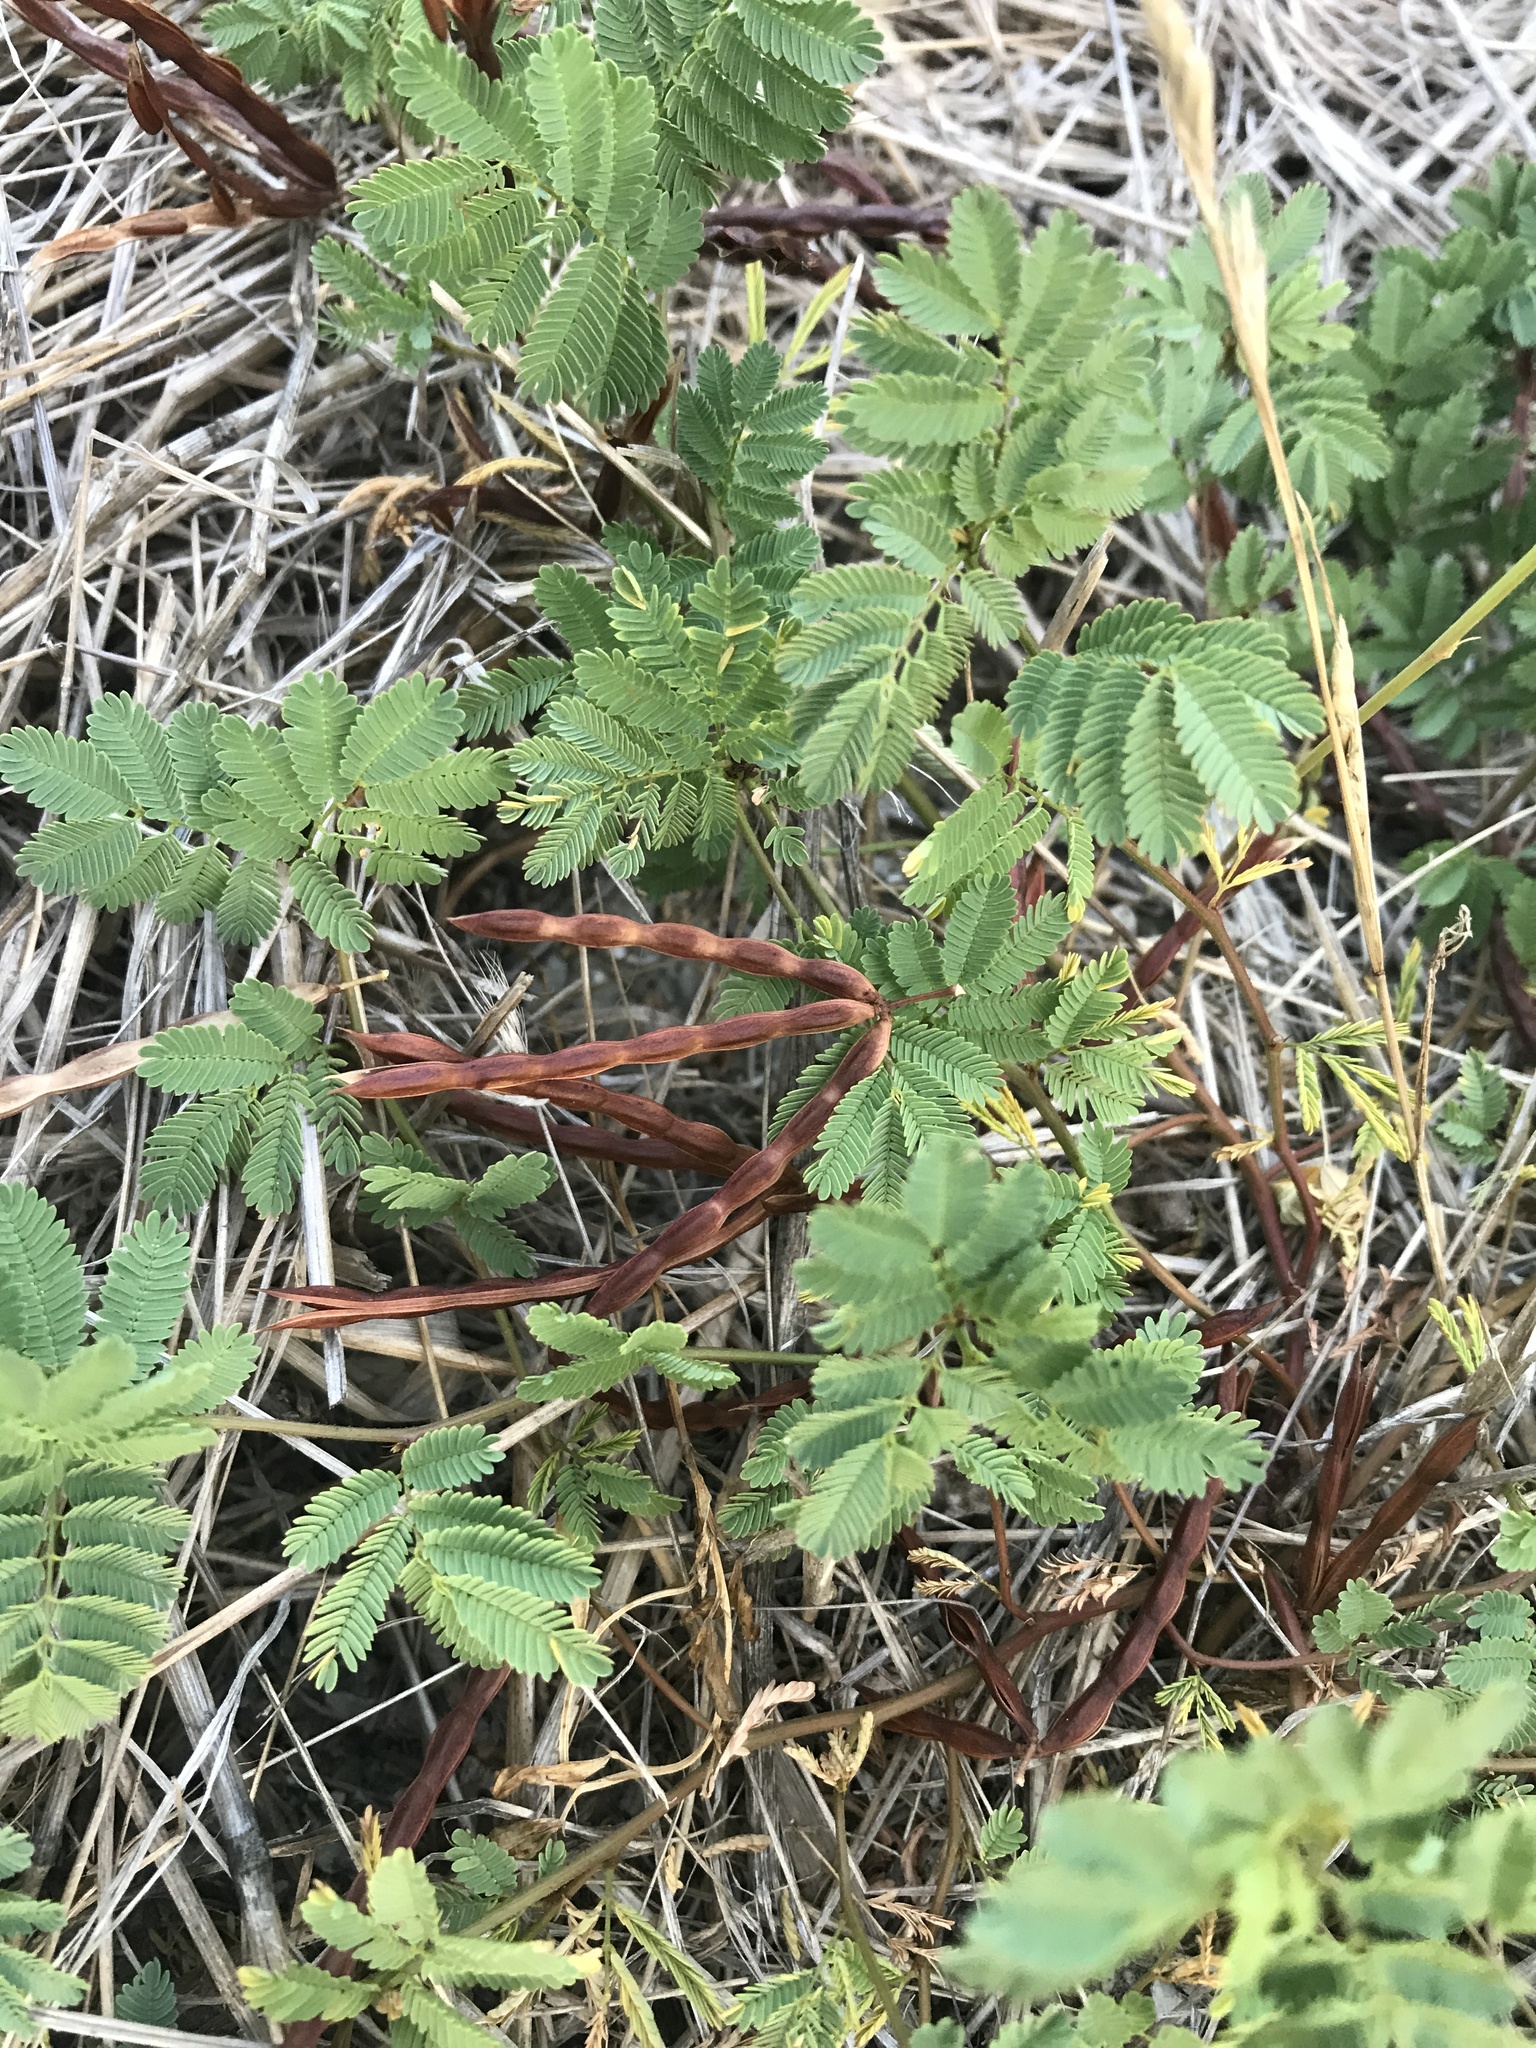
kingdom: Plantae
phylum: Tracheophyta
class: Magnoliopsida
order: Fabales
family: Fabaceae
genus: Desmanthus
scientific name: Desmanthus leptolobus
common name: Prairie-mimosa
